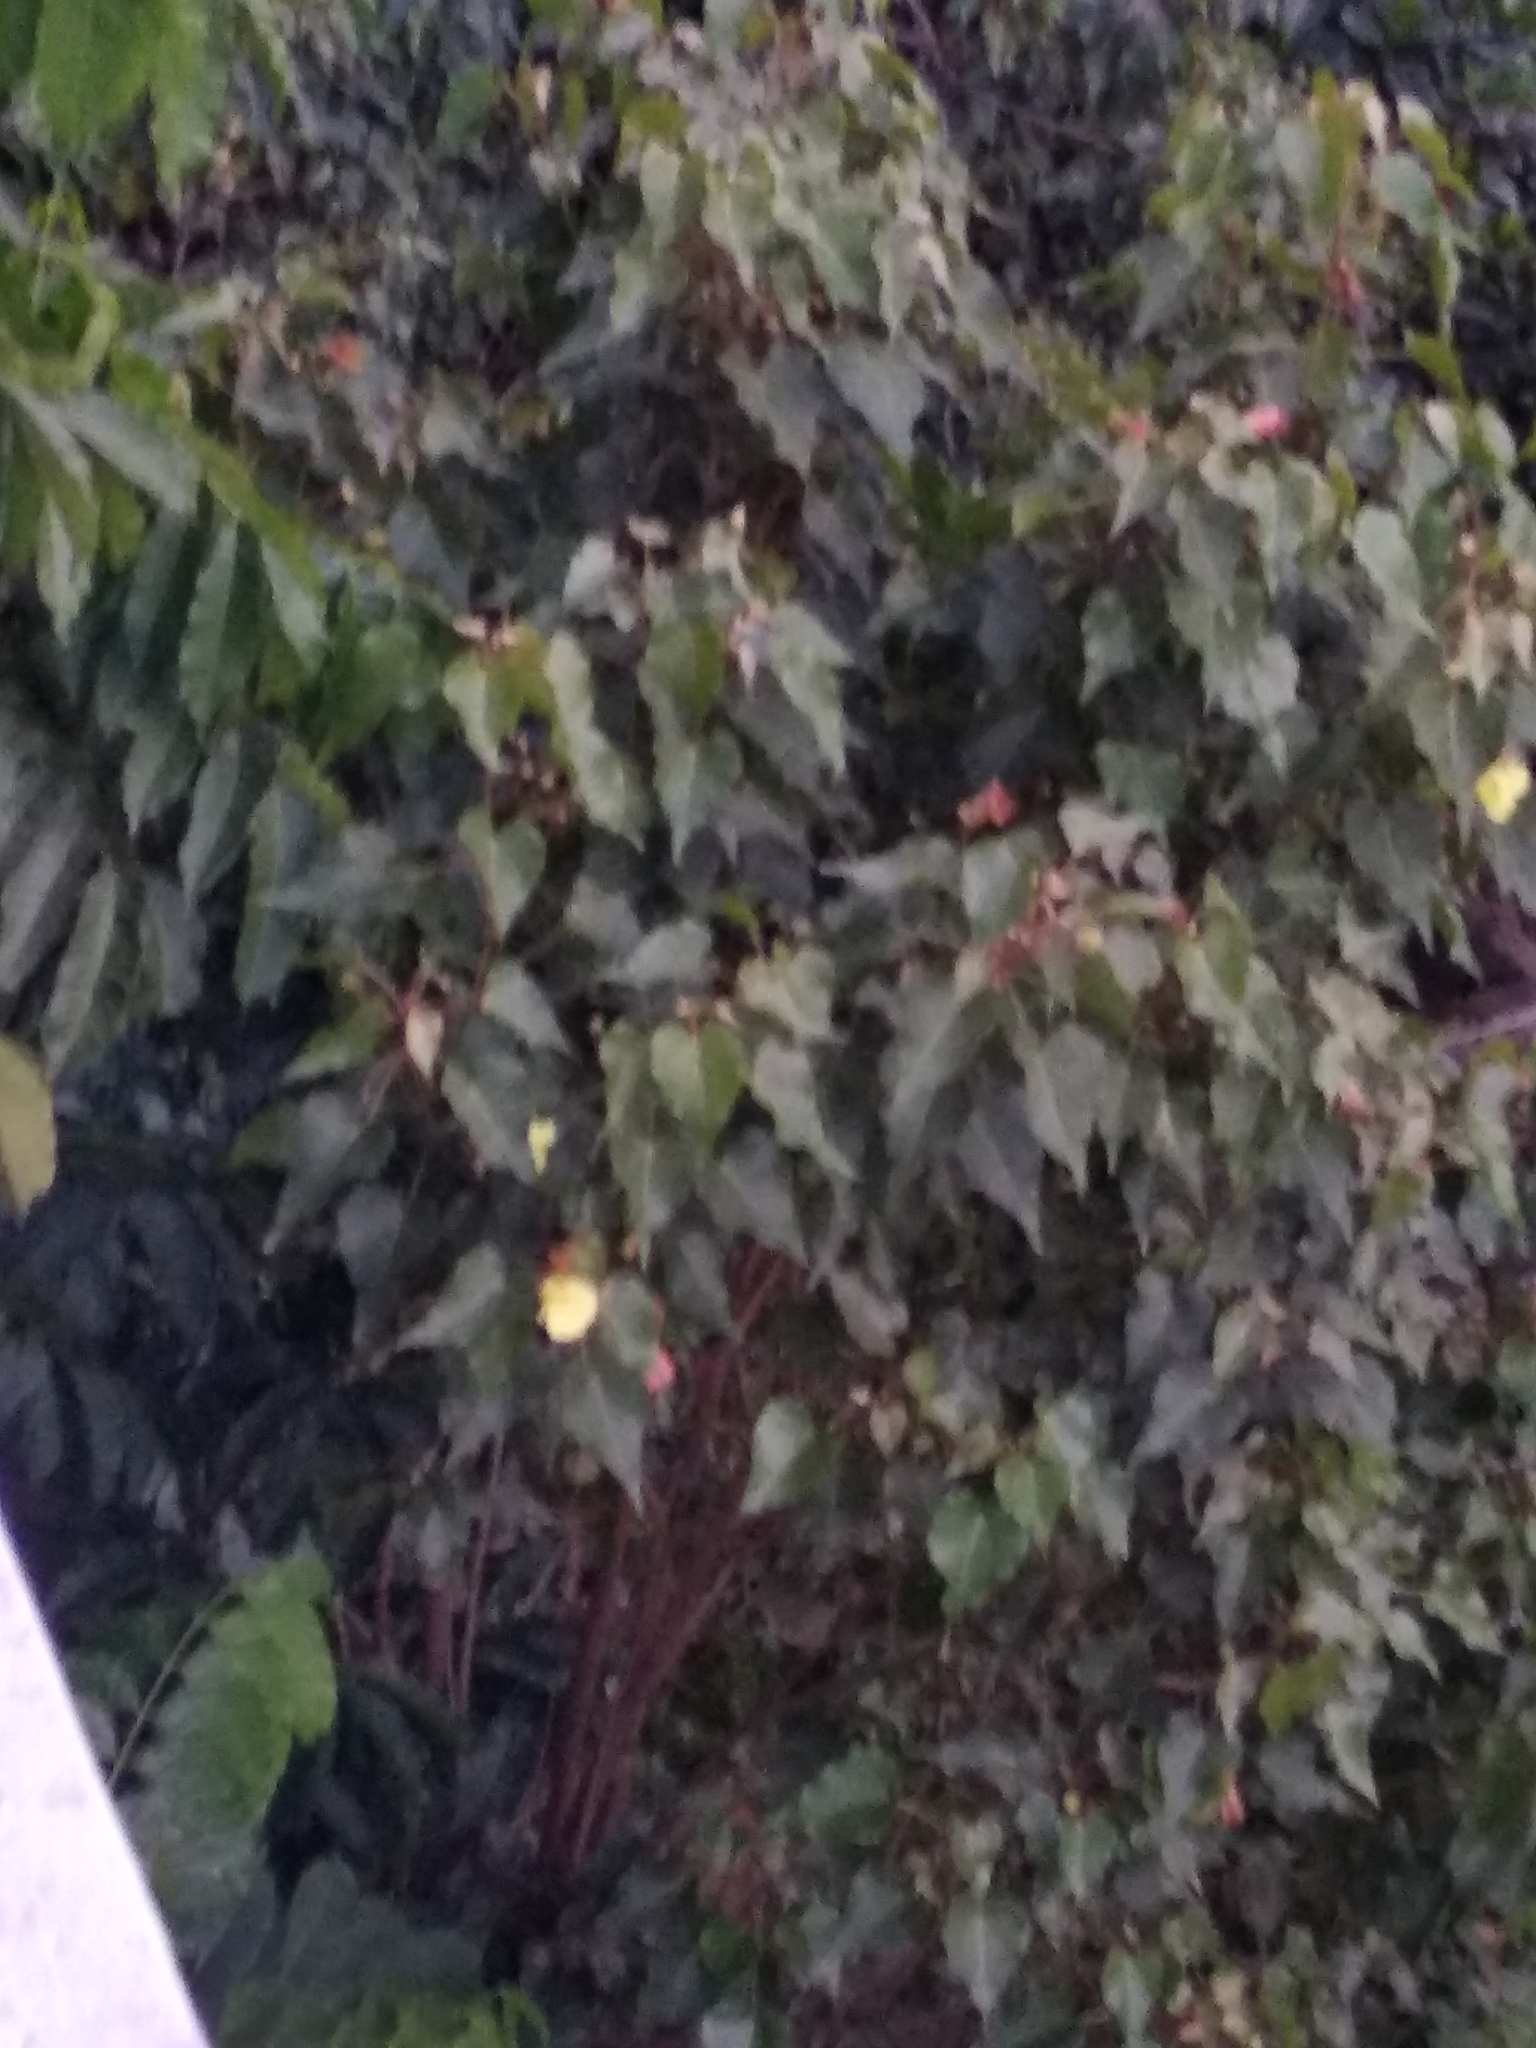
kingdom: Plantae
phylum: Tracheophyta
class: Magnoliopsida
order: Malvales
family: Malvaceae
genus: Thespesia
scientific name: Thespesia populnea
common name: Seaside mahoe
